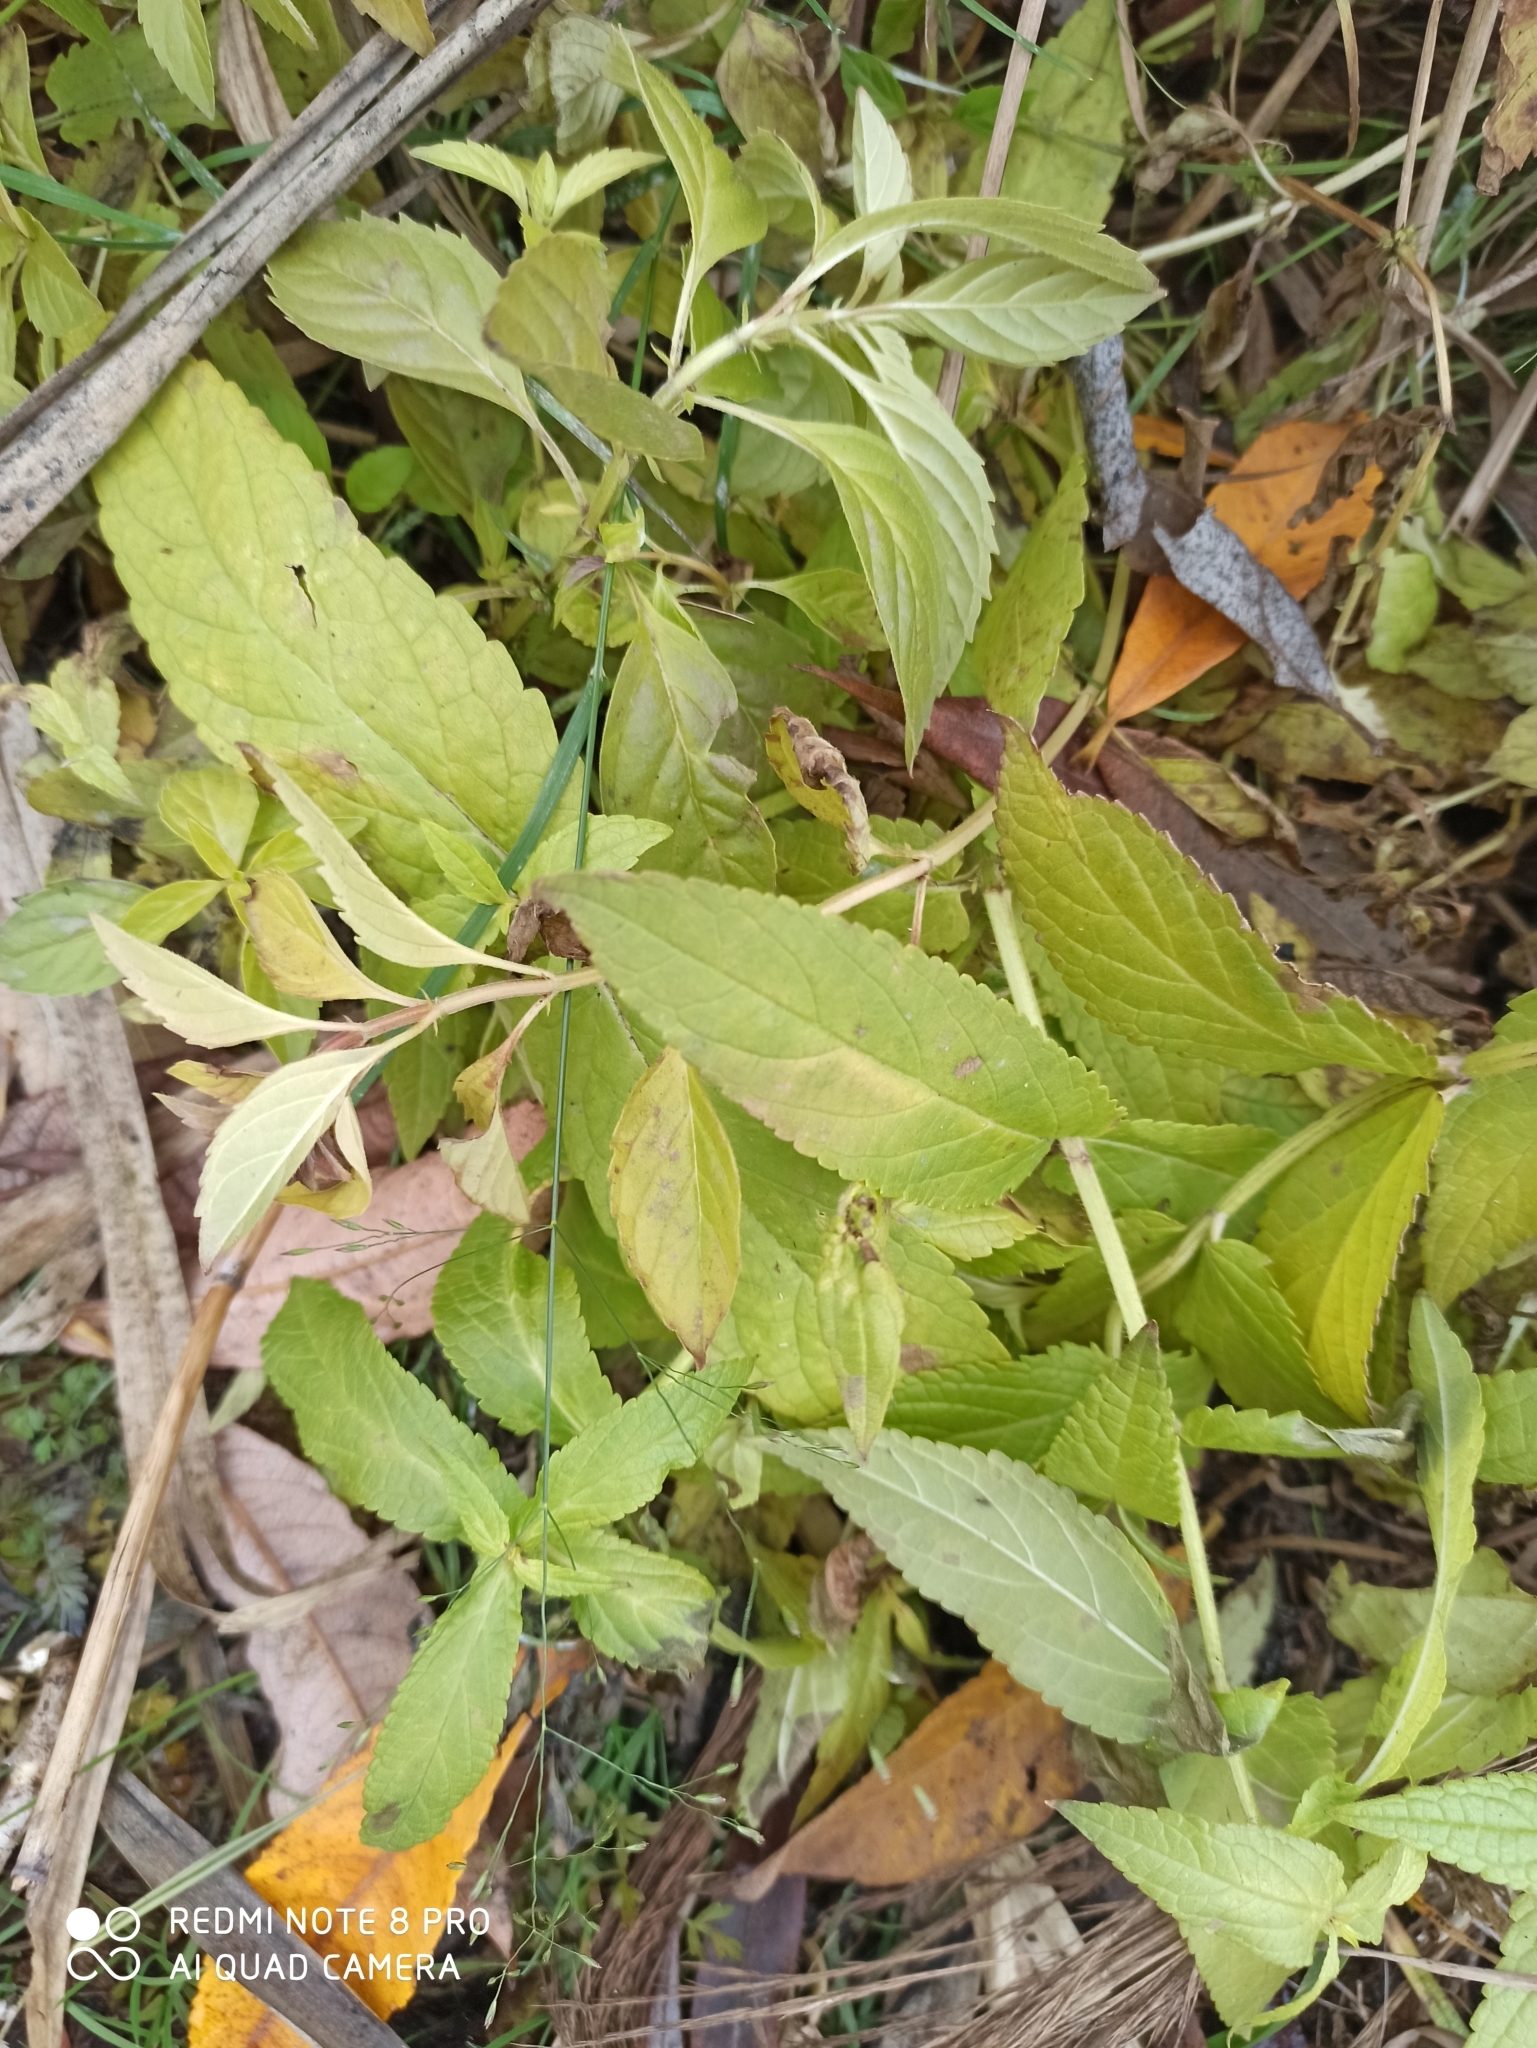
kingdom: Plantae
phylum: Tracheophyta
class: Magnoliopsida
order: Lamiales
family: Lamiaceae
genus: Stachys
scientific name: Stachys palustris
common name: Marsh woundwort
